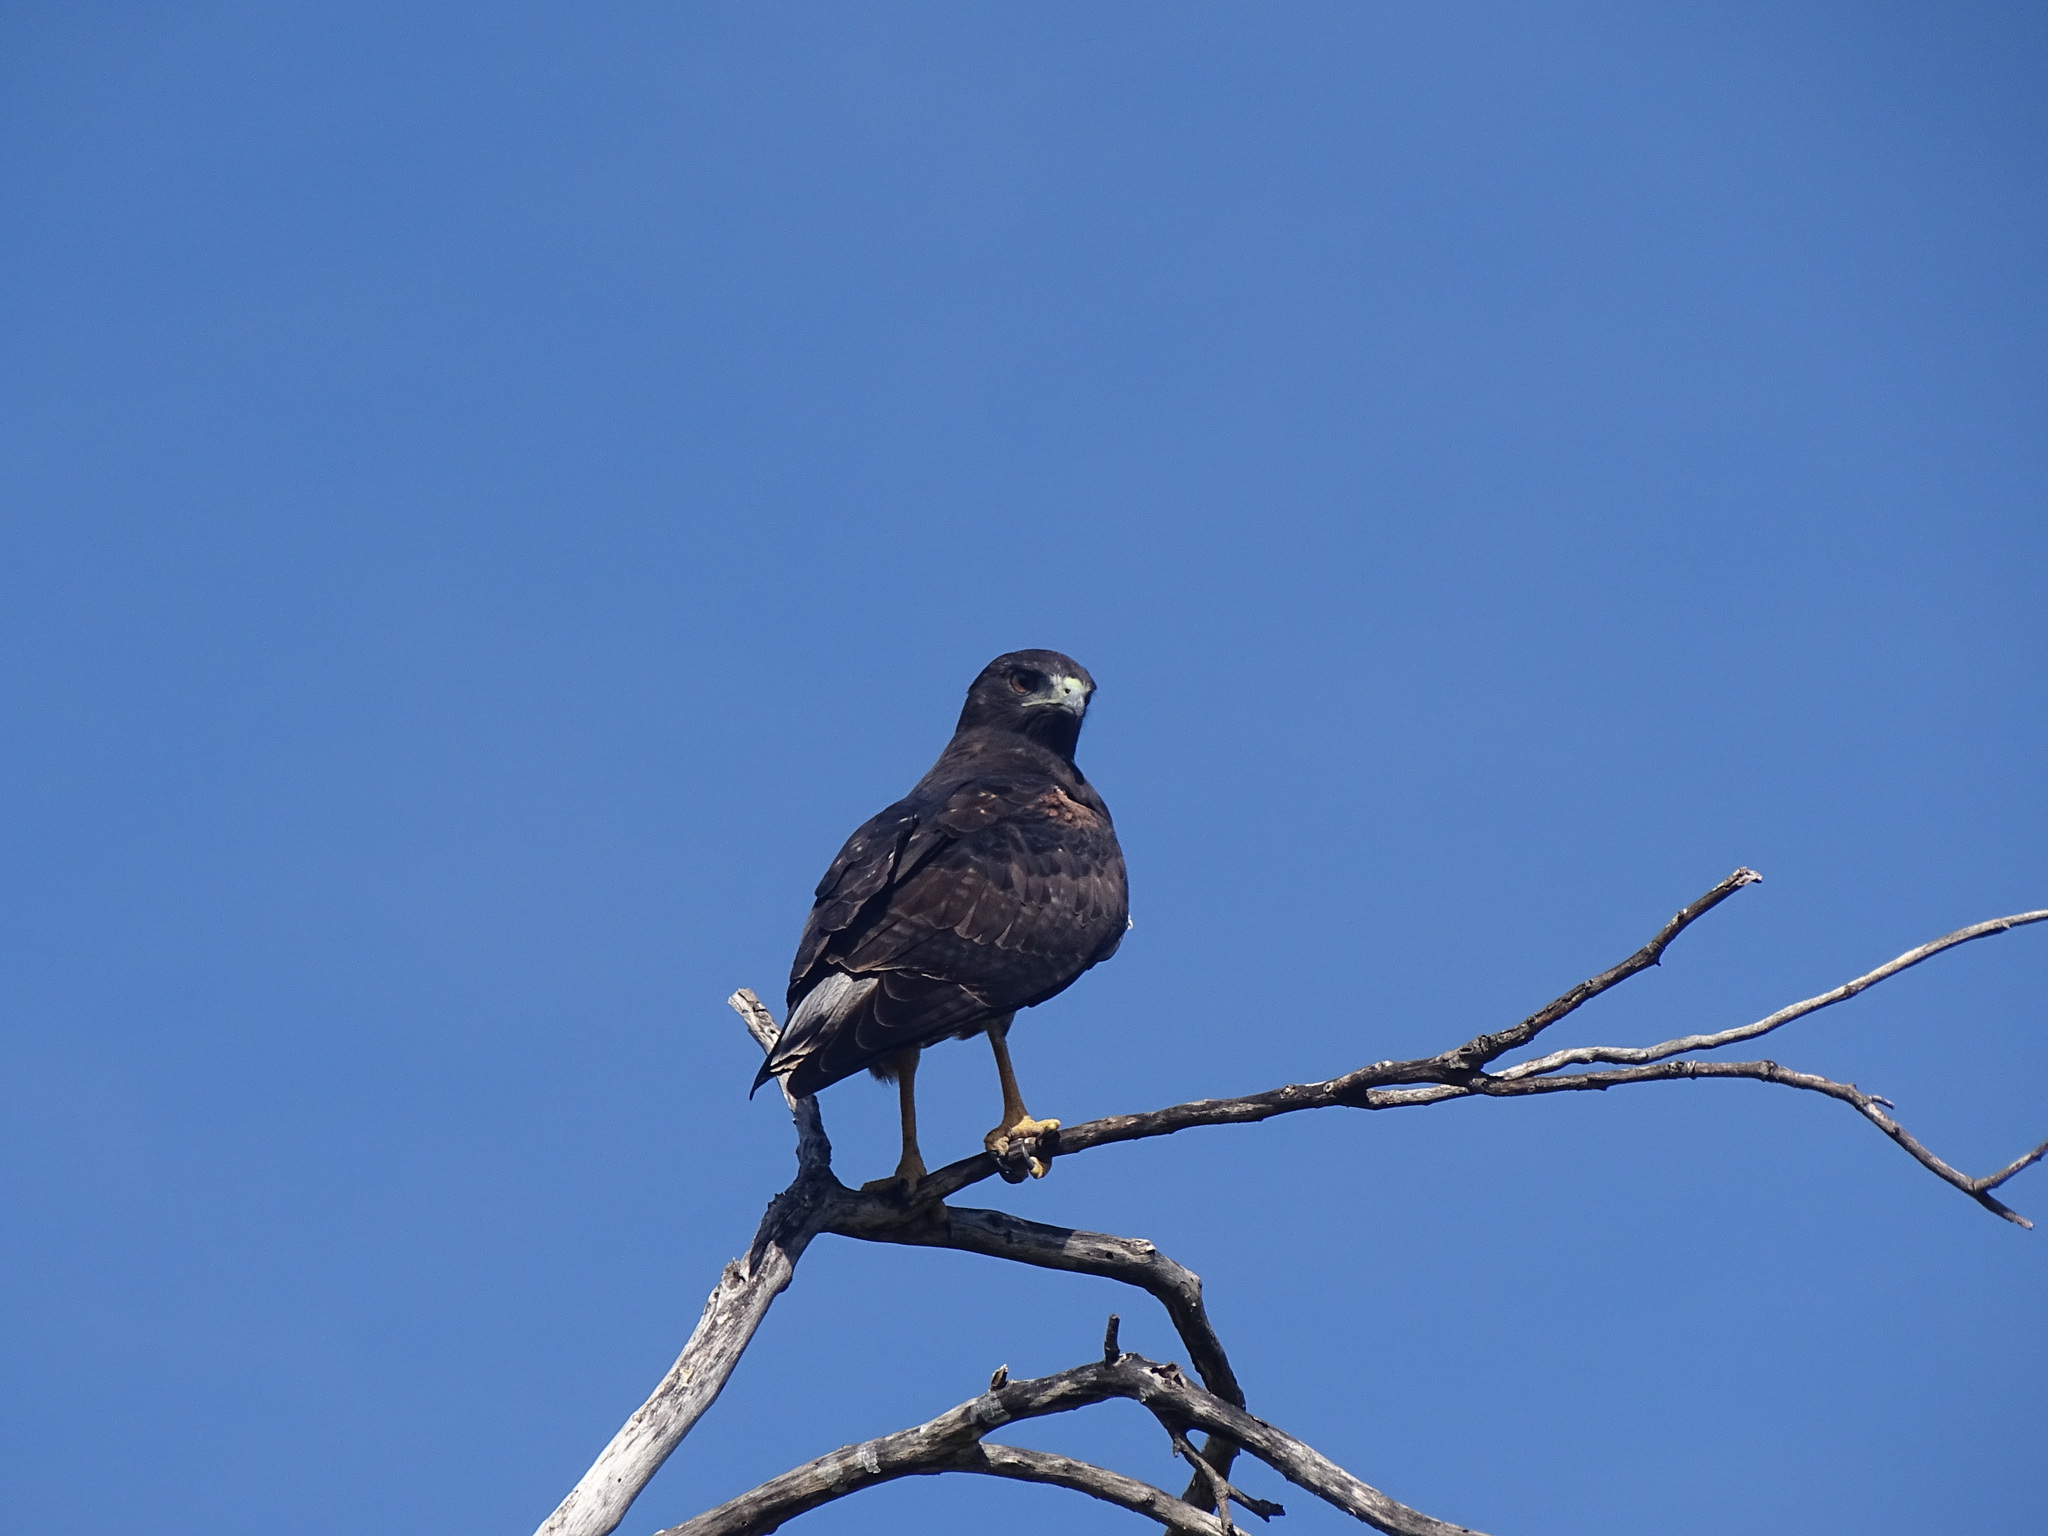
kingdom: Animalia
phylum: Chordata
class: Aves
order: Accipitriformes
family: Accipitridae
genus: Buteo
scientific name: Buteo albicaudatus
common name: White-tailed hawk
